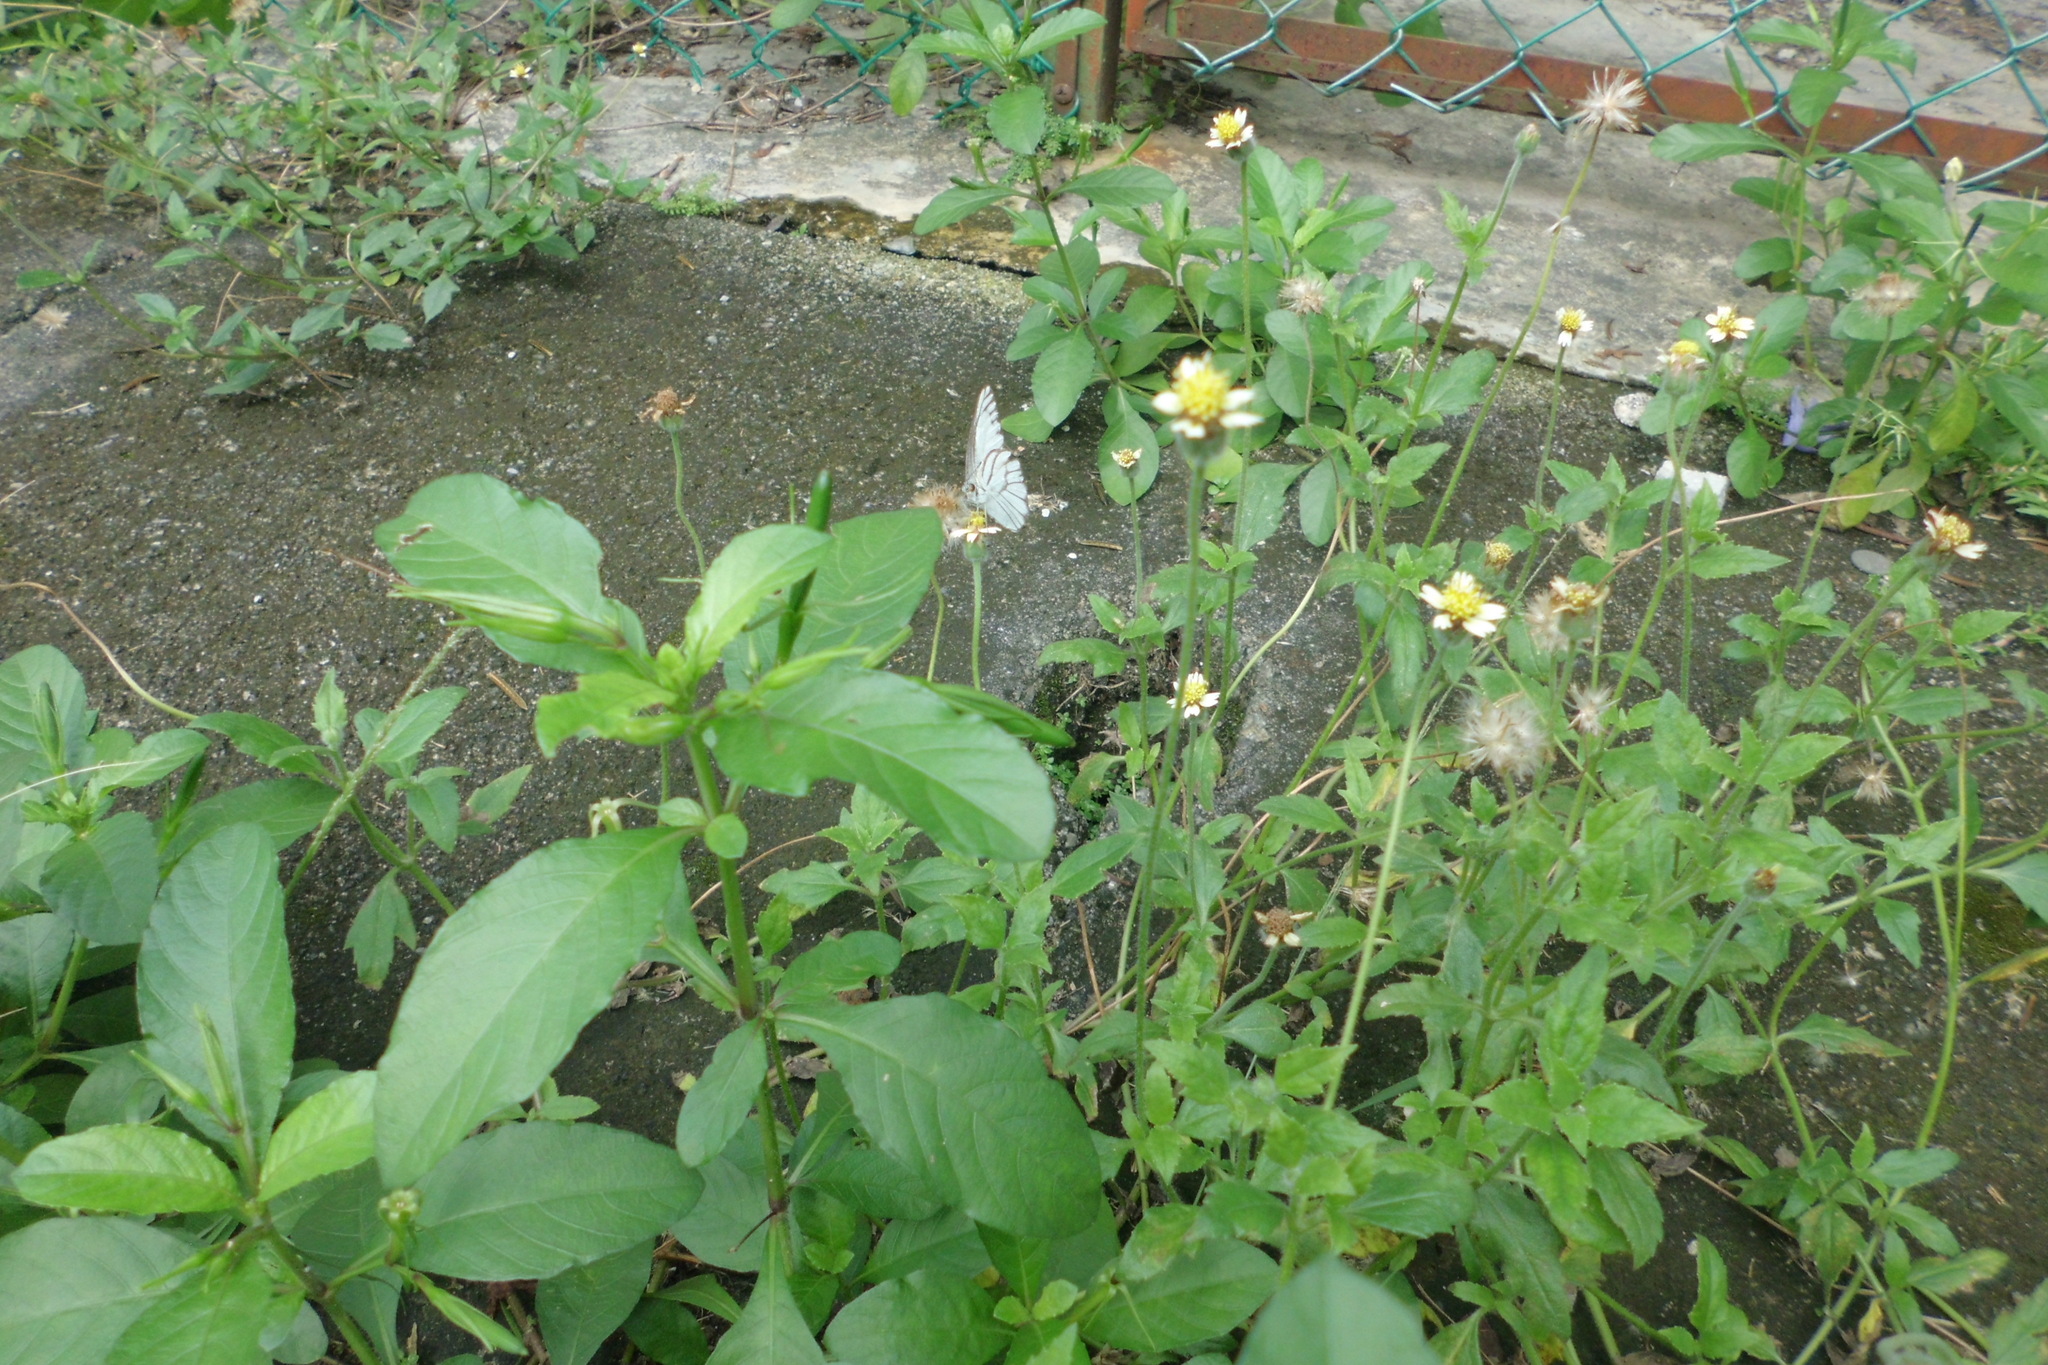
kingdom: Animalia
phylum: Arthropoda
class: Insecta
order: Lepidoptera
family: Pieridae
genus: Appias
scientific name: Appias libythea
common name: Striped albatross
